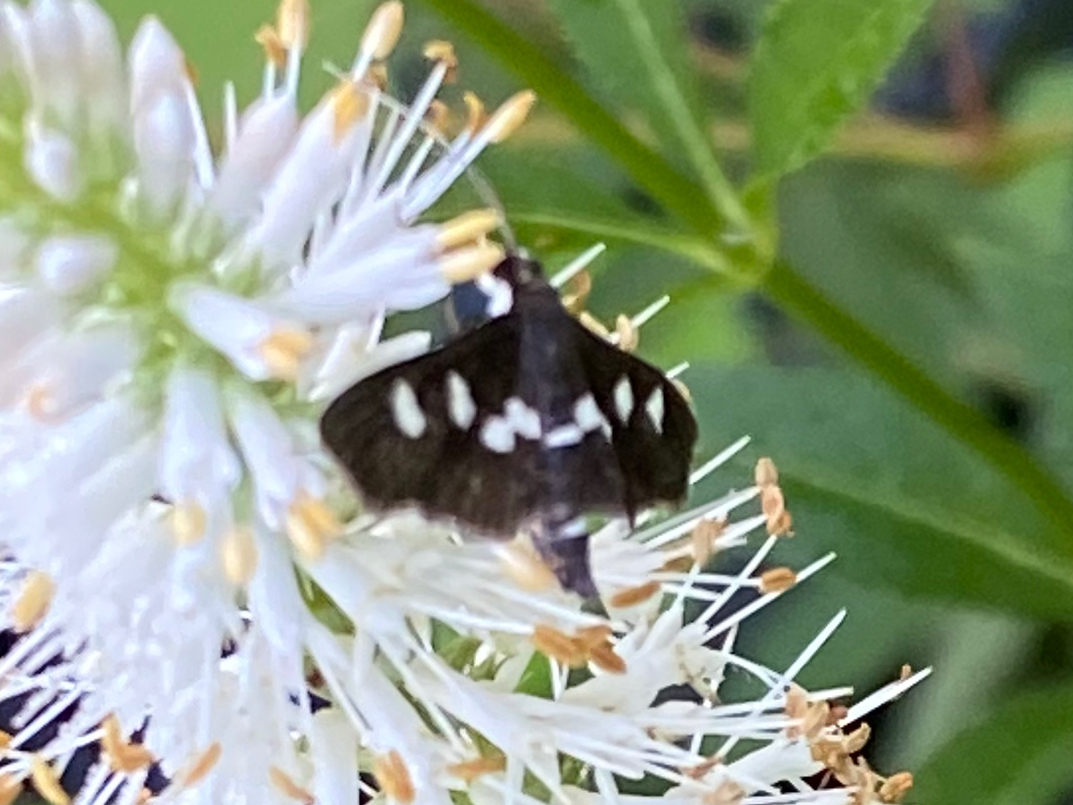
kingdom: Animalia
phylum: Arthropoda
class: Insecta
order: Lepidoptera
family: Crambidae
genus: Desmia
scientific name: Desmia
